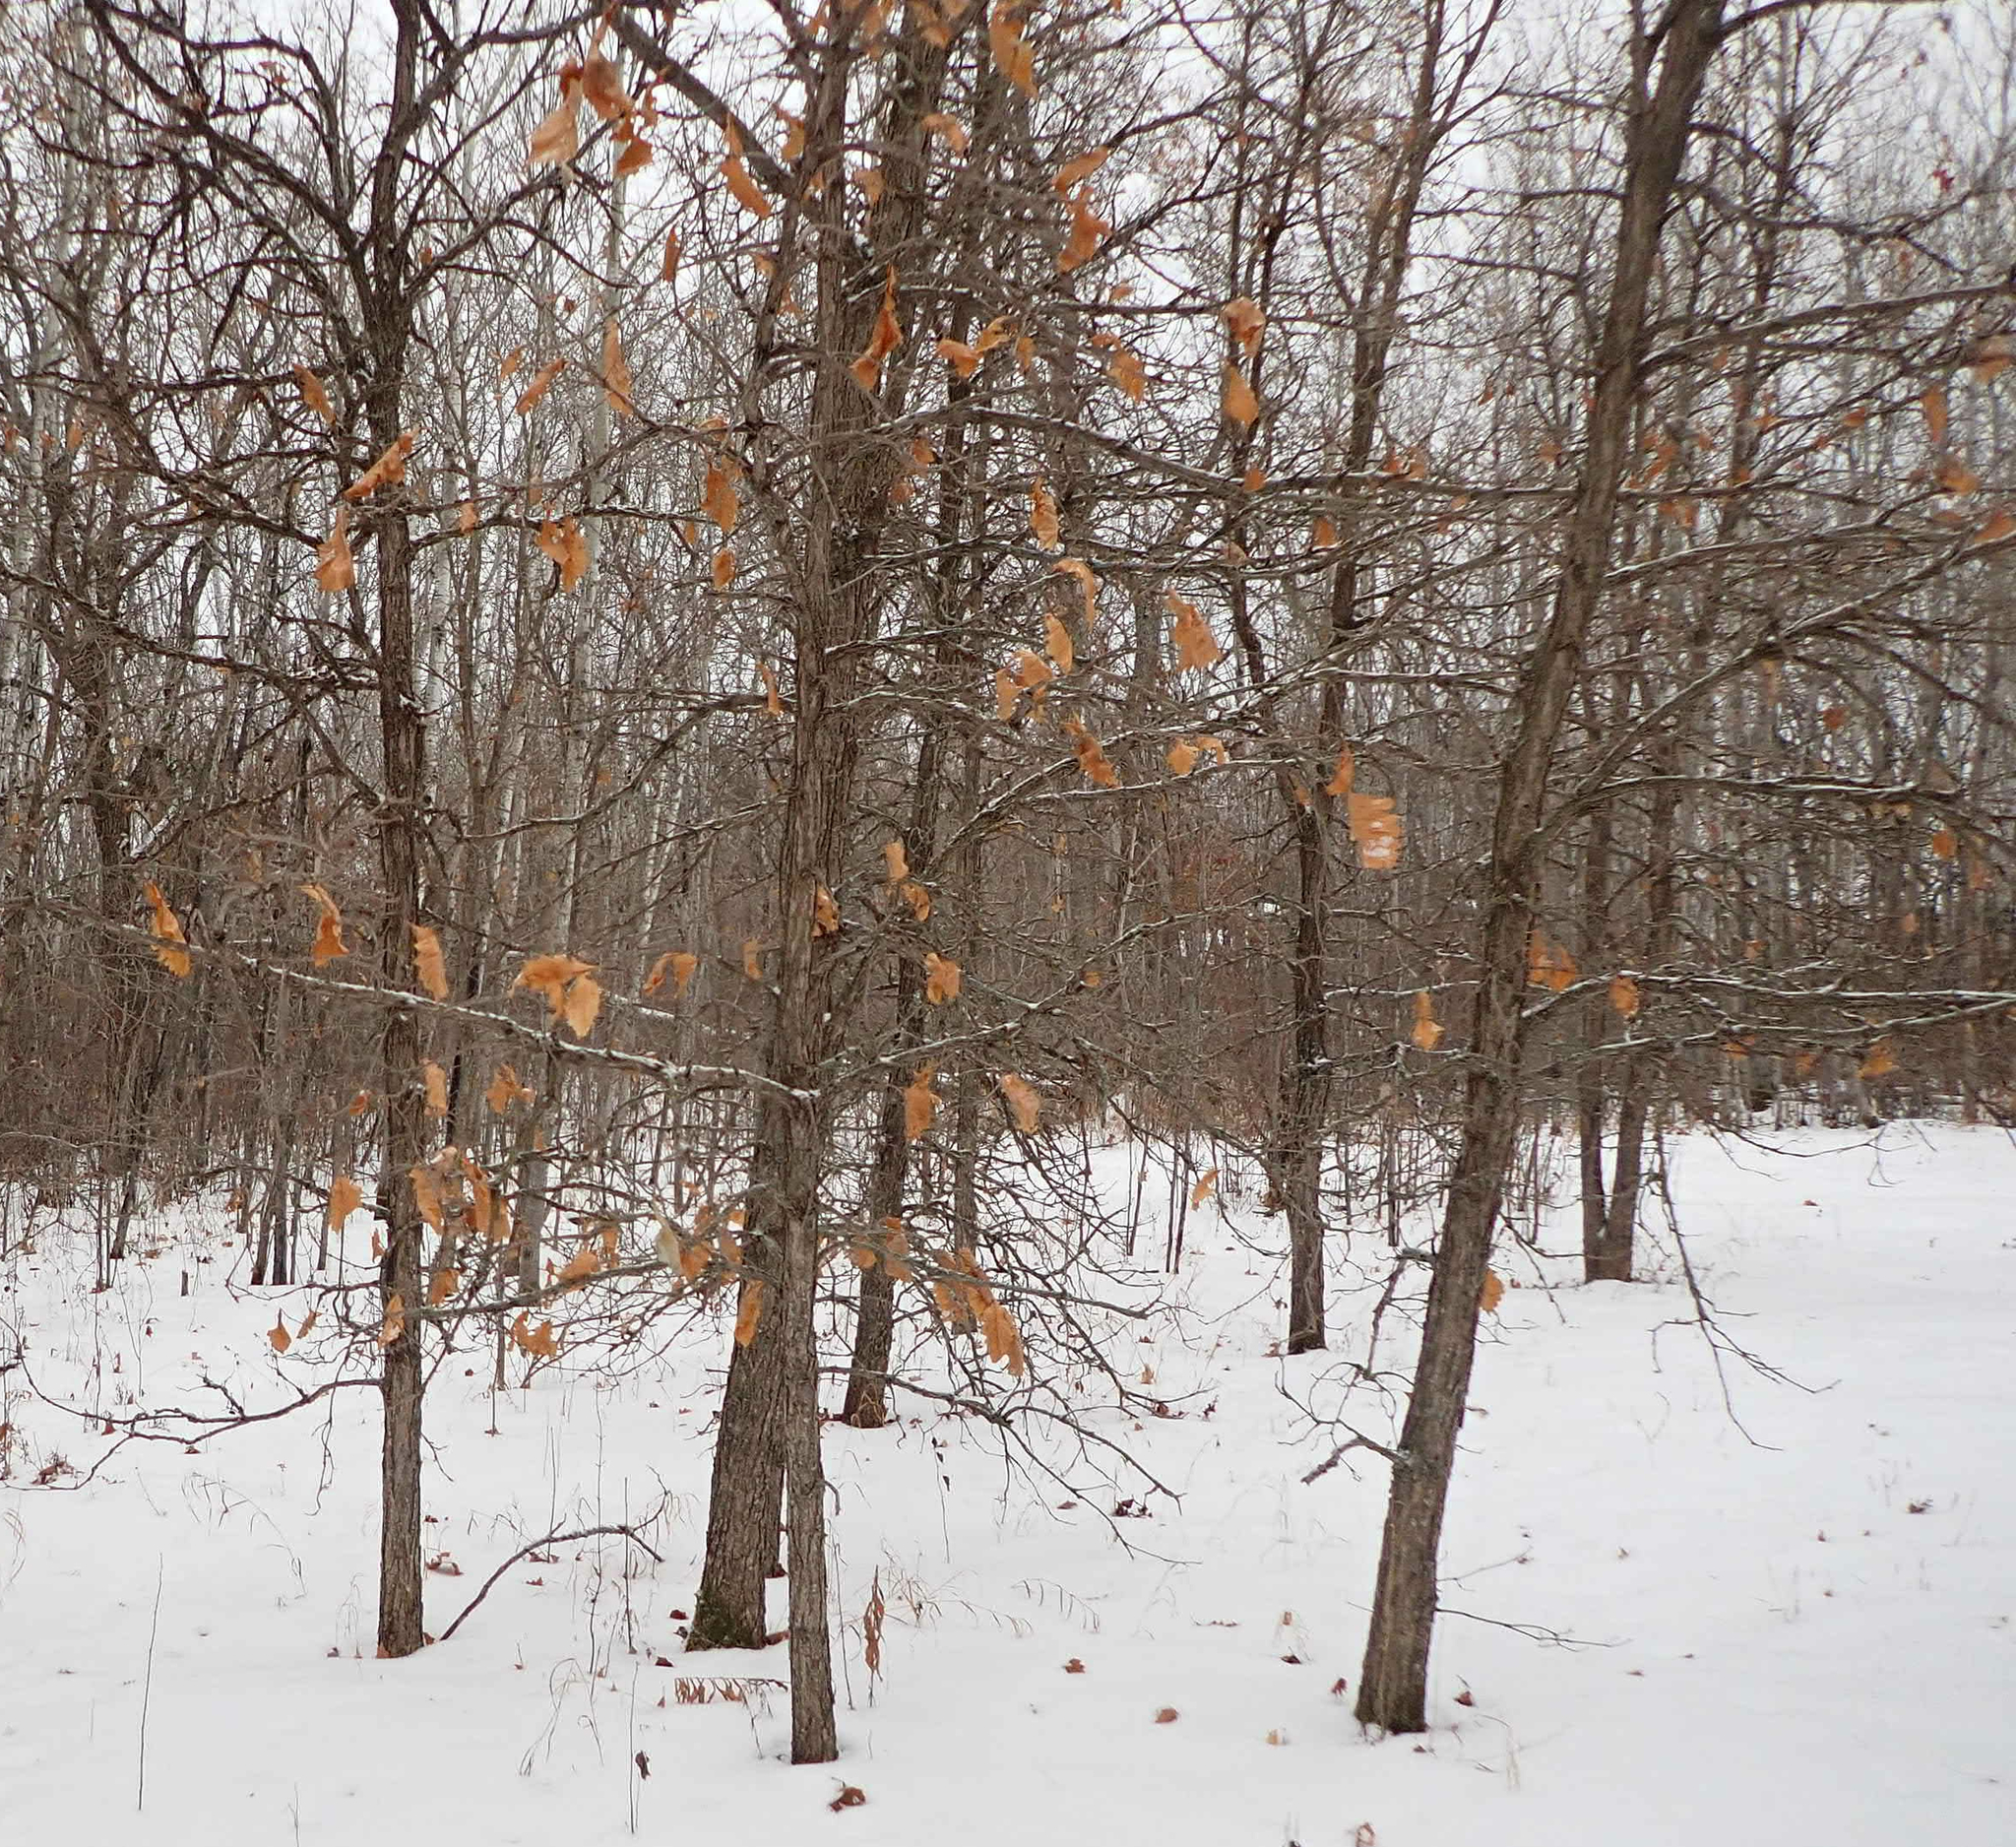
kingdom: Plantae
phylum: Tracheophyta
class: Magnoliopsida
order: Fagales
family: Fagaceae
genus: Quercus
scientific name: Quercus macrocarpa
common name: Bur oak
